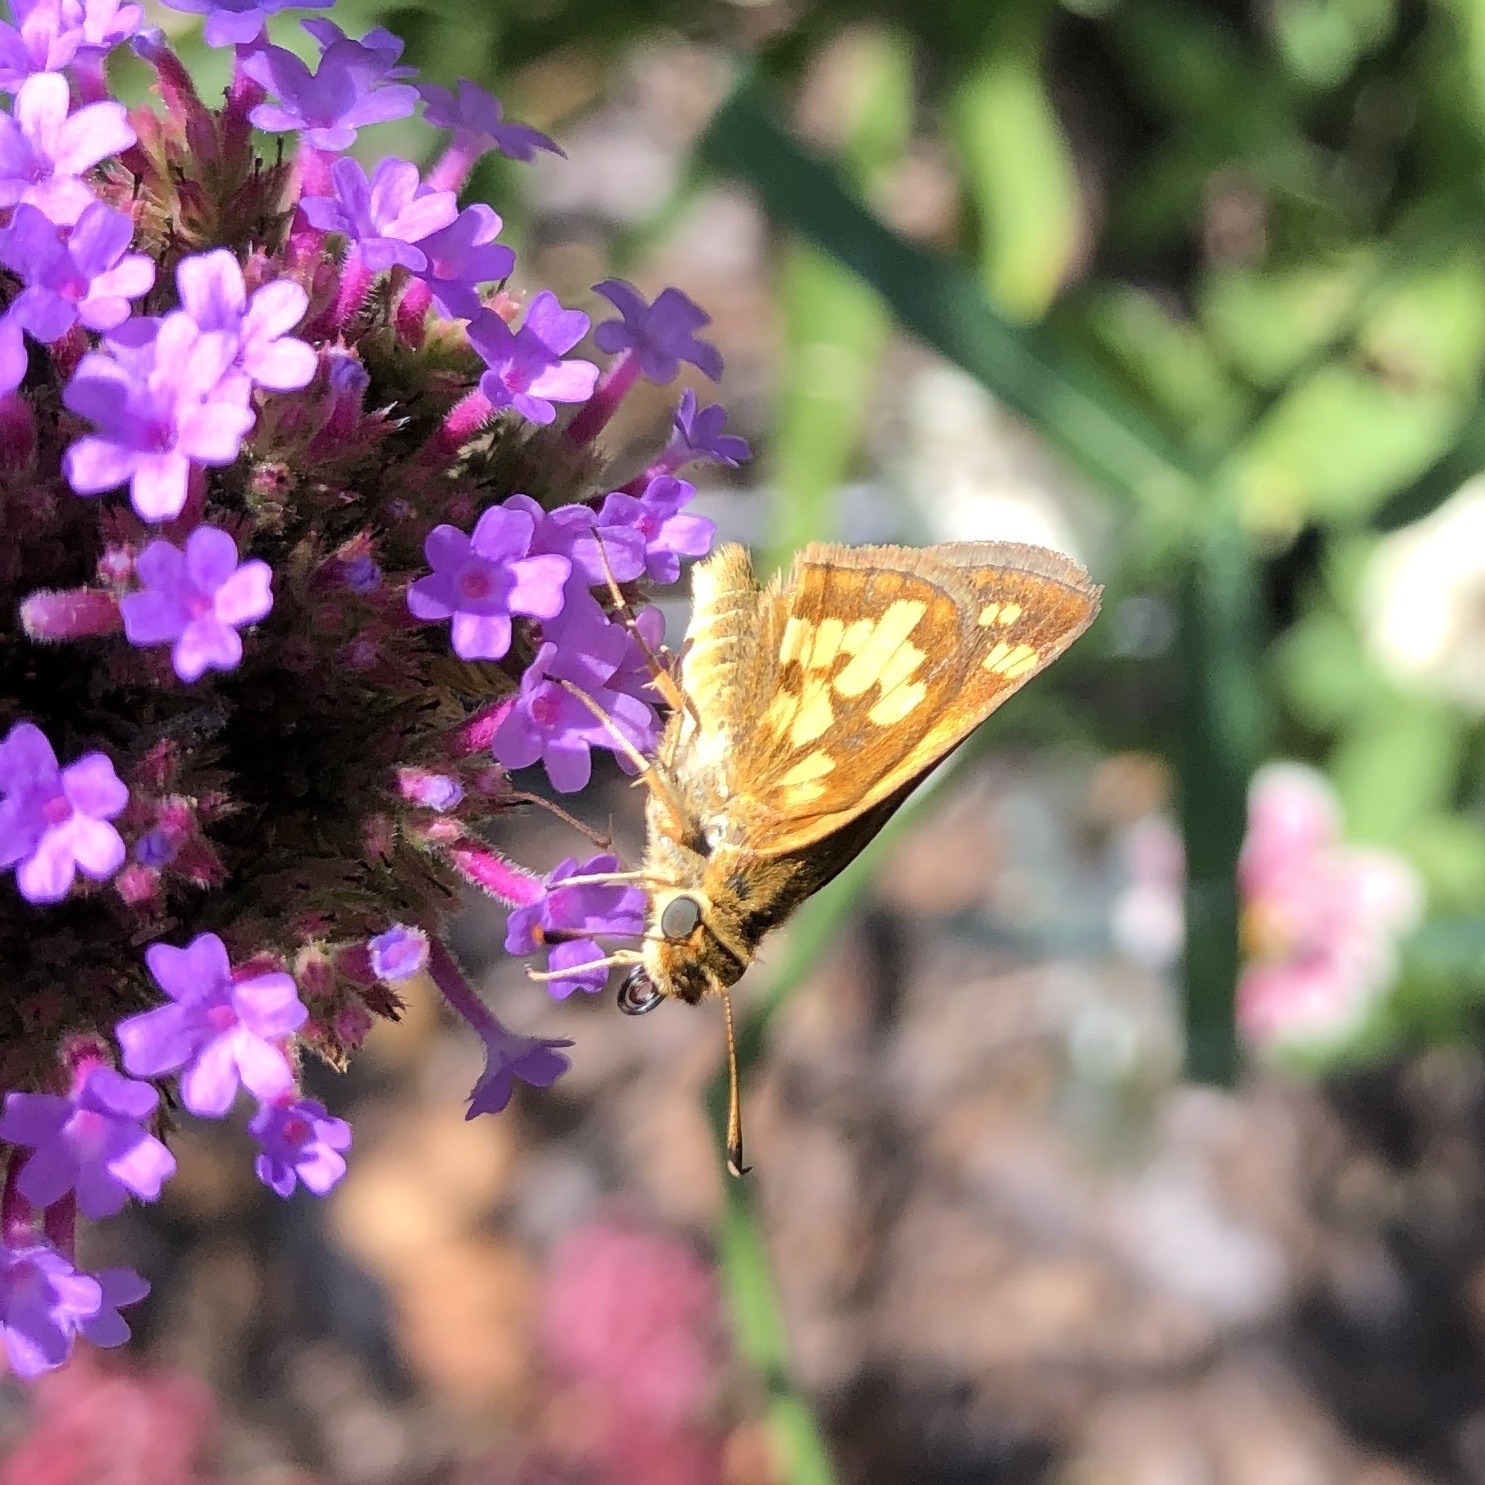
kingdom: Animalia
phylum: Arthropoda
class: Insecta
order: Lepidoptera
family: Hesperiidae
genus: Polites
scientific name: Polites coras
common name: Peck's skipper
